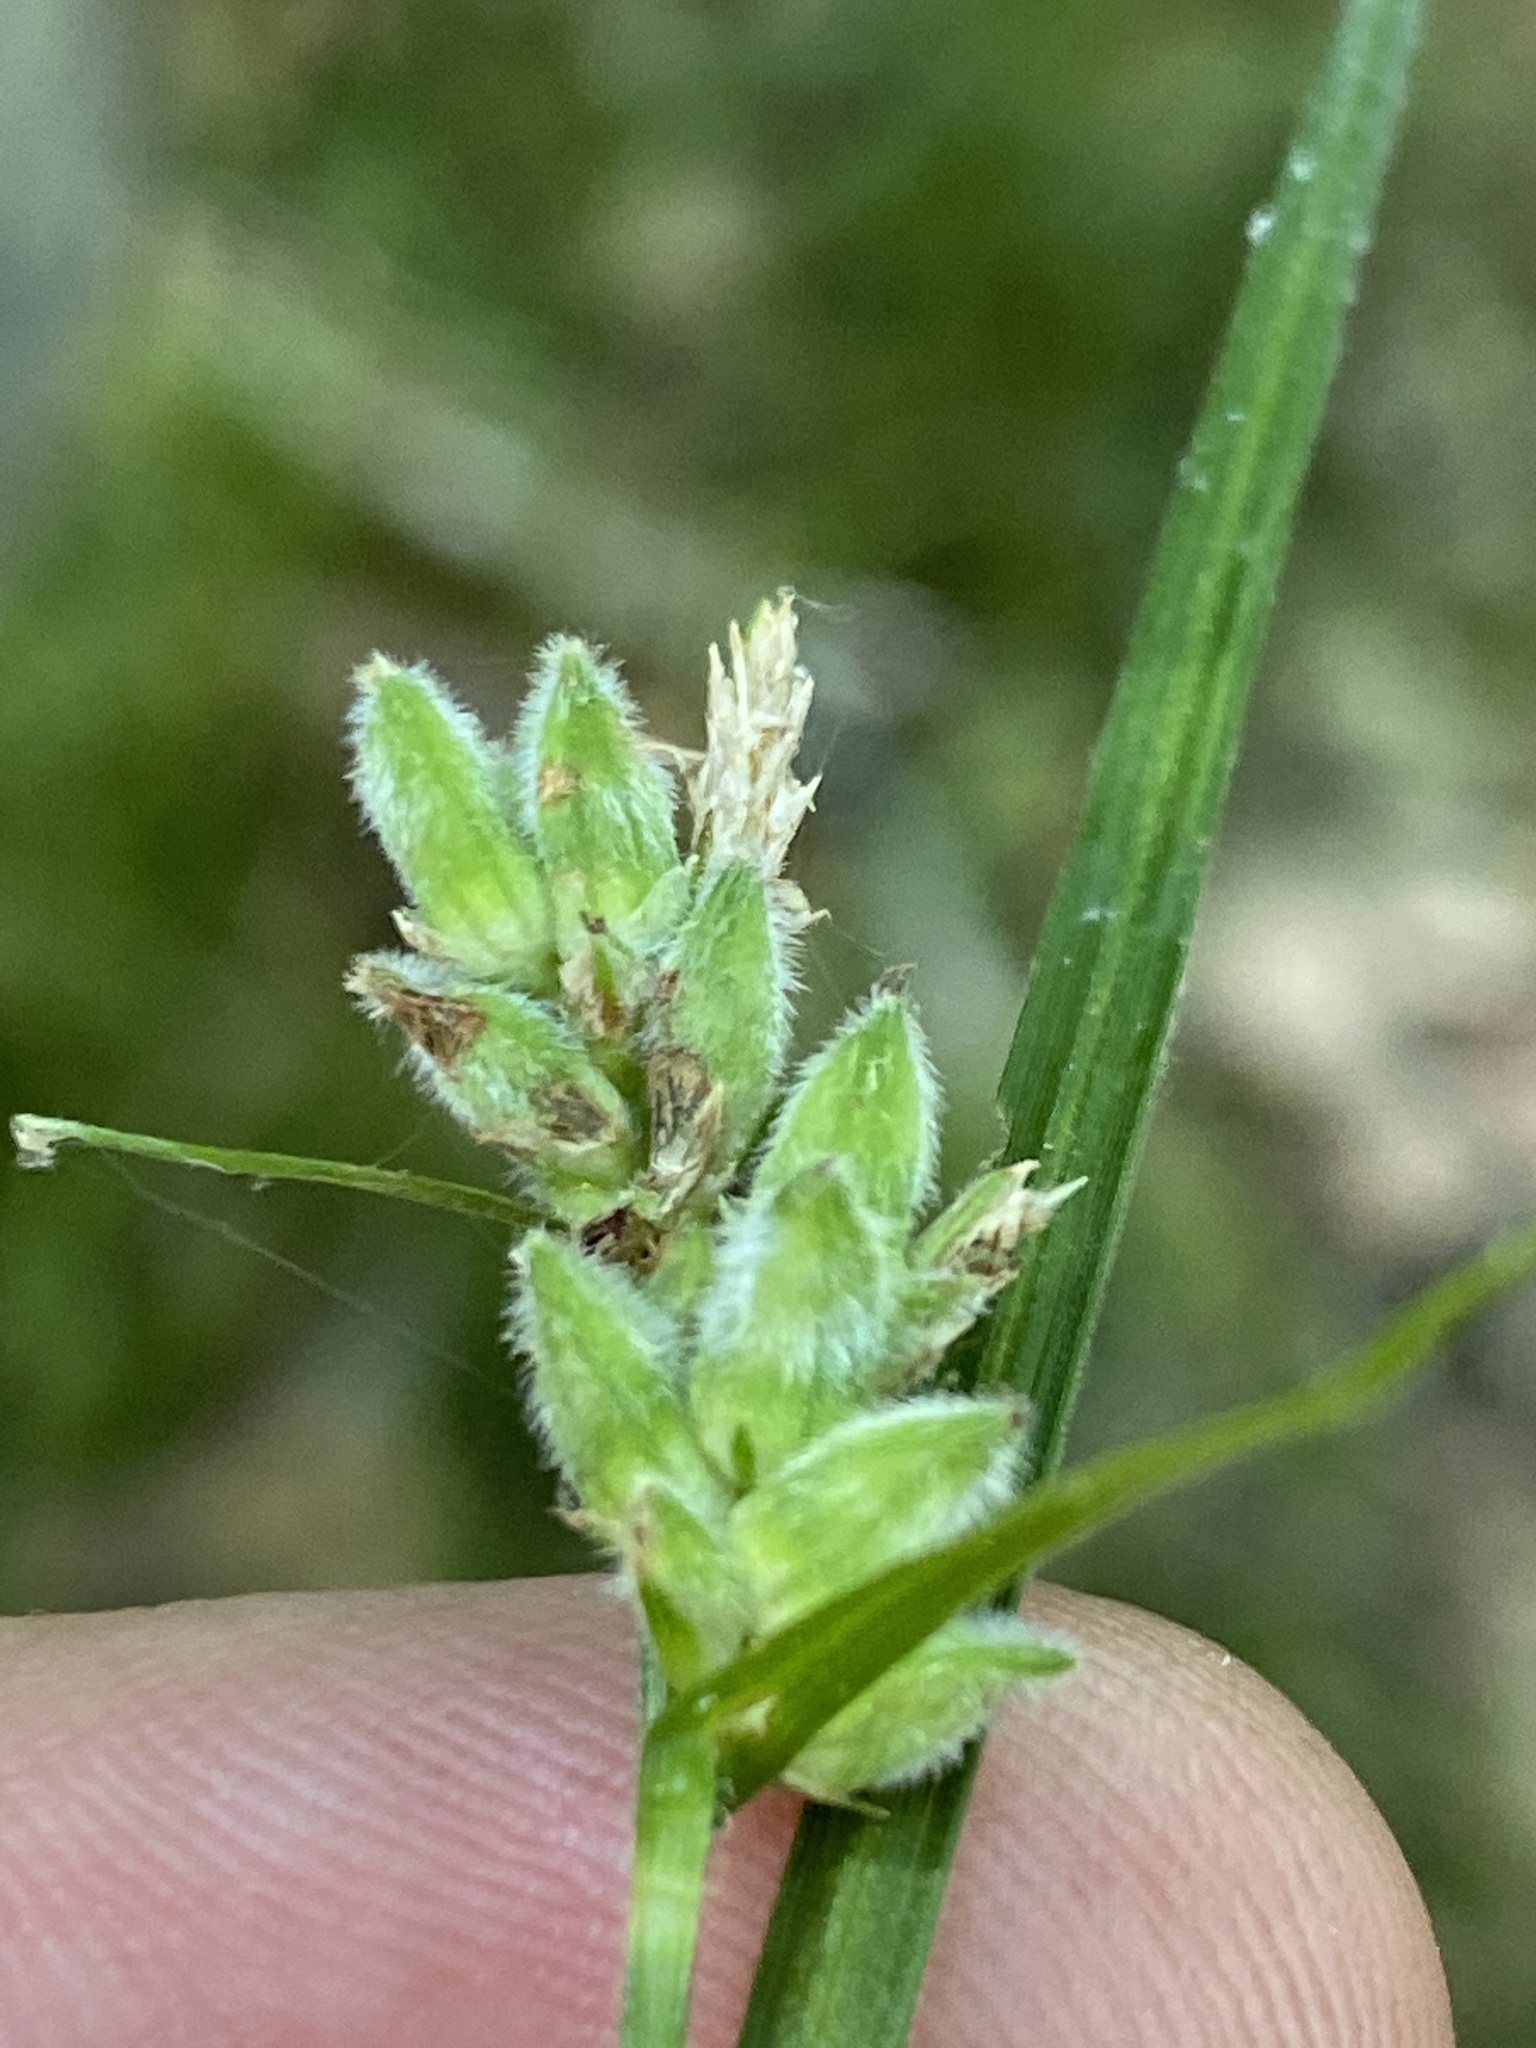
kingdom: Plantae
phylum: Tracheophyta
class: Liliopsida
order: Poales
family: Cyperaceae
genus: Carex
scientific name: Carex dasycarpa
